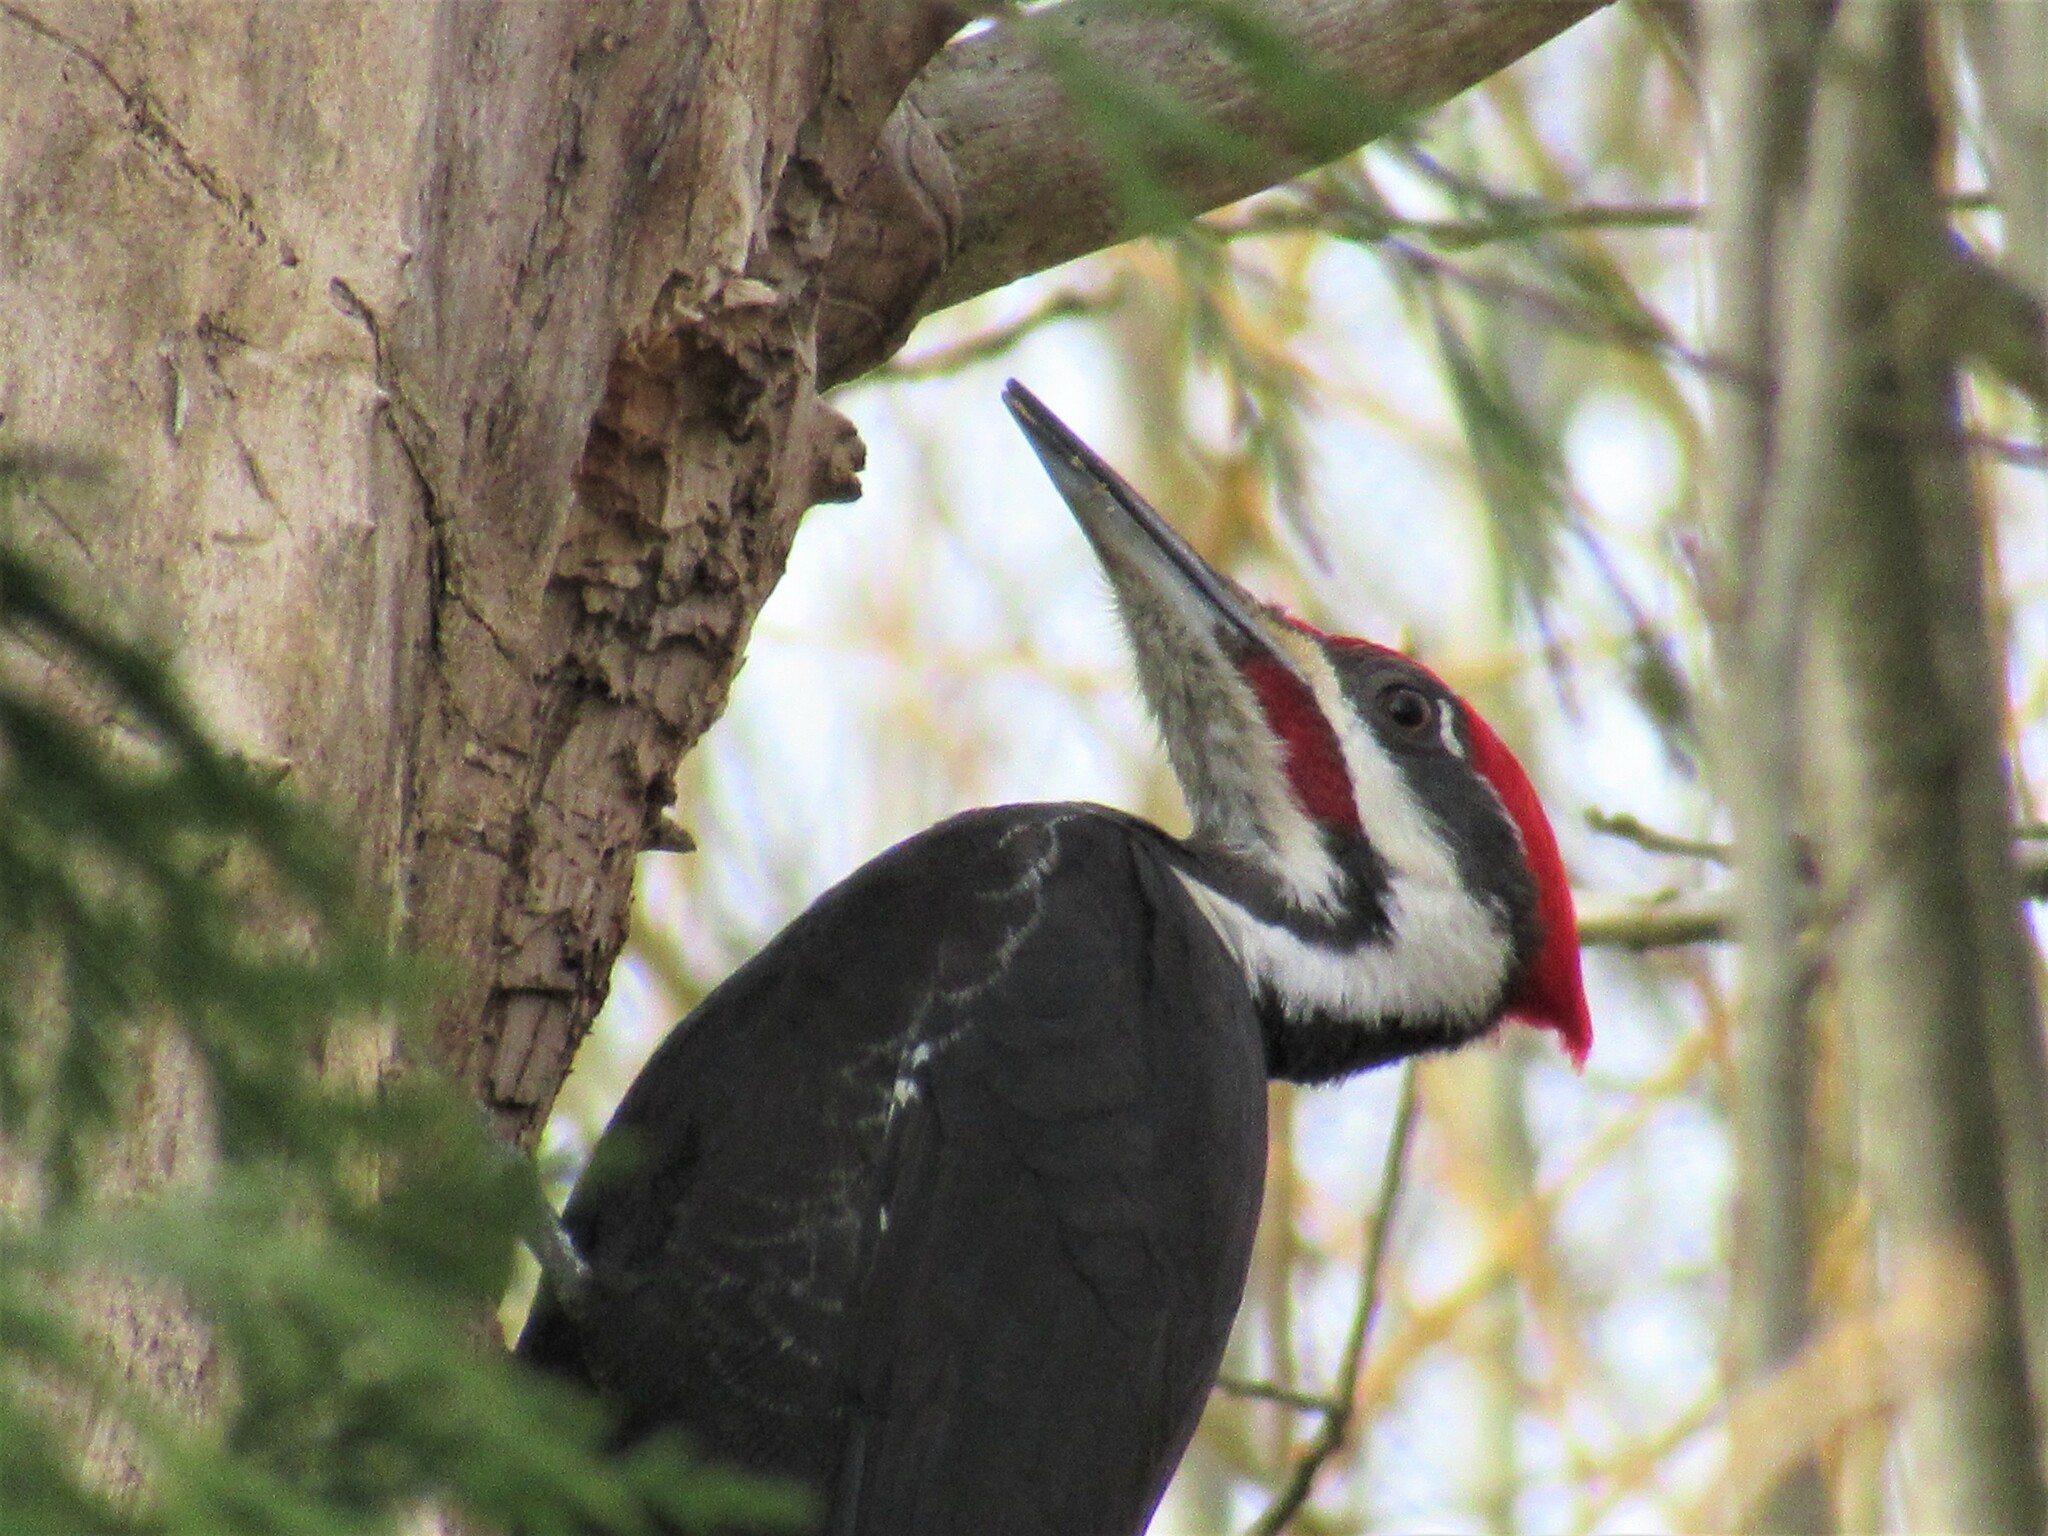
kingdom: Animalia
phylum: Chordata
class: Aves
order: Piciformes
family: Picidae
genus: Dryocopus
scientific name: Dryocopus pileatus
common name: Pileated woodpecker
